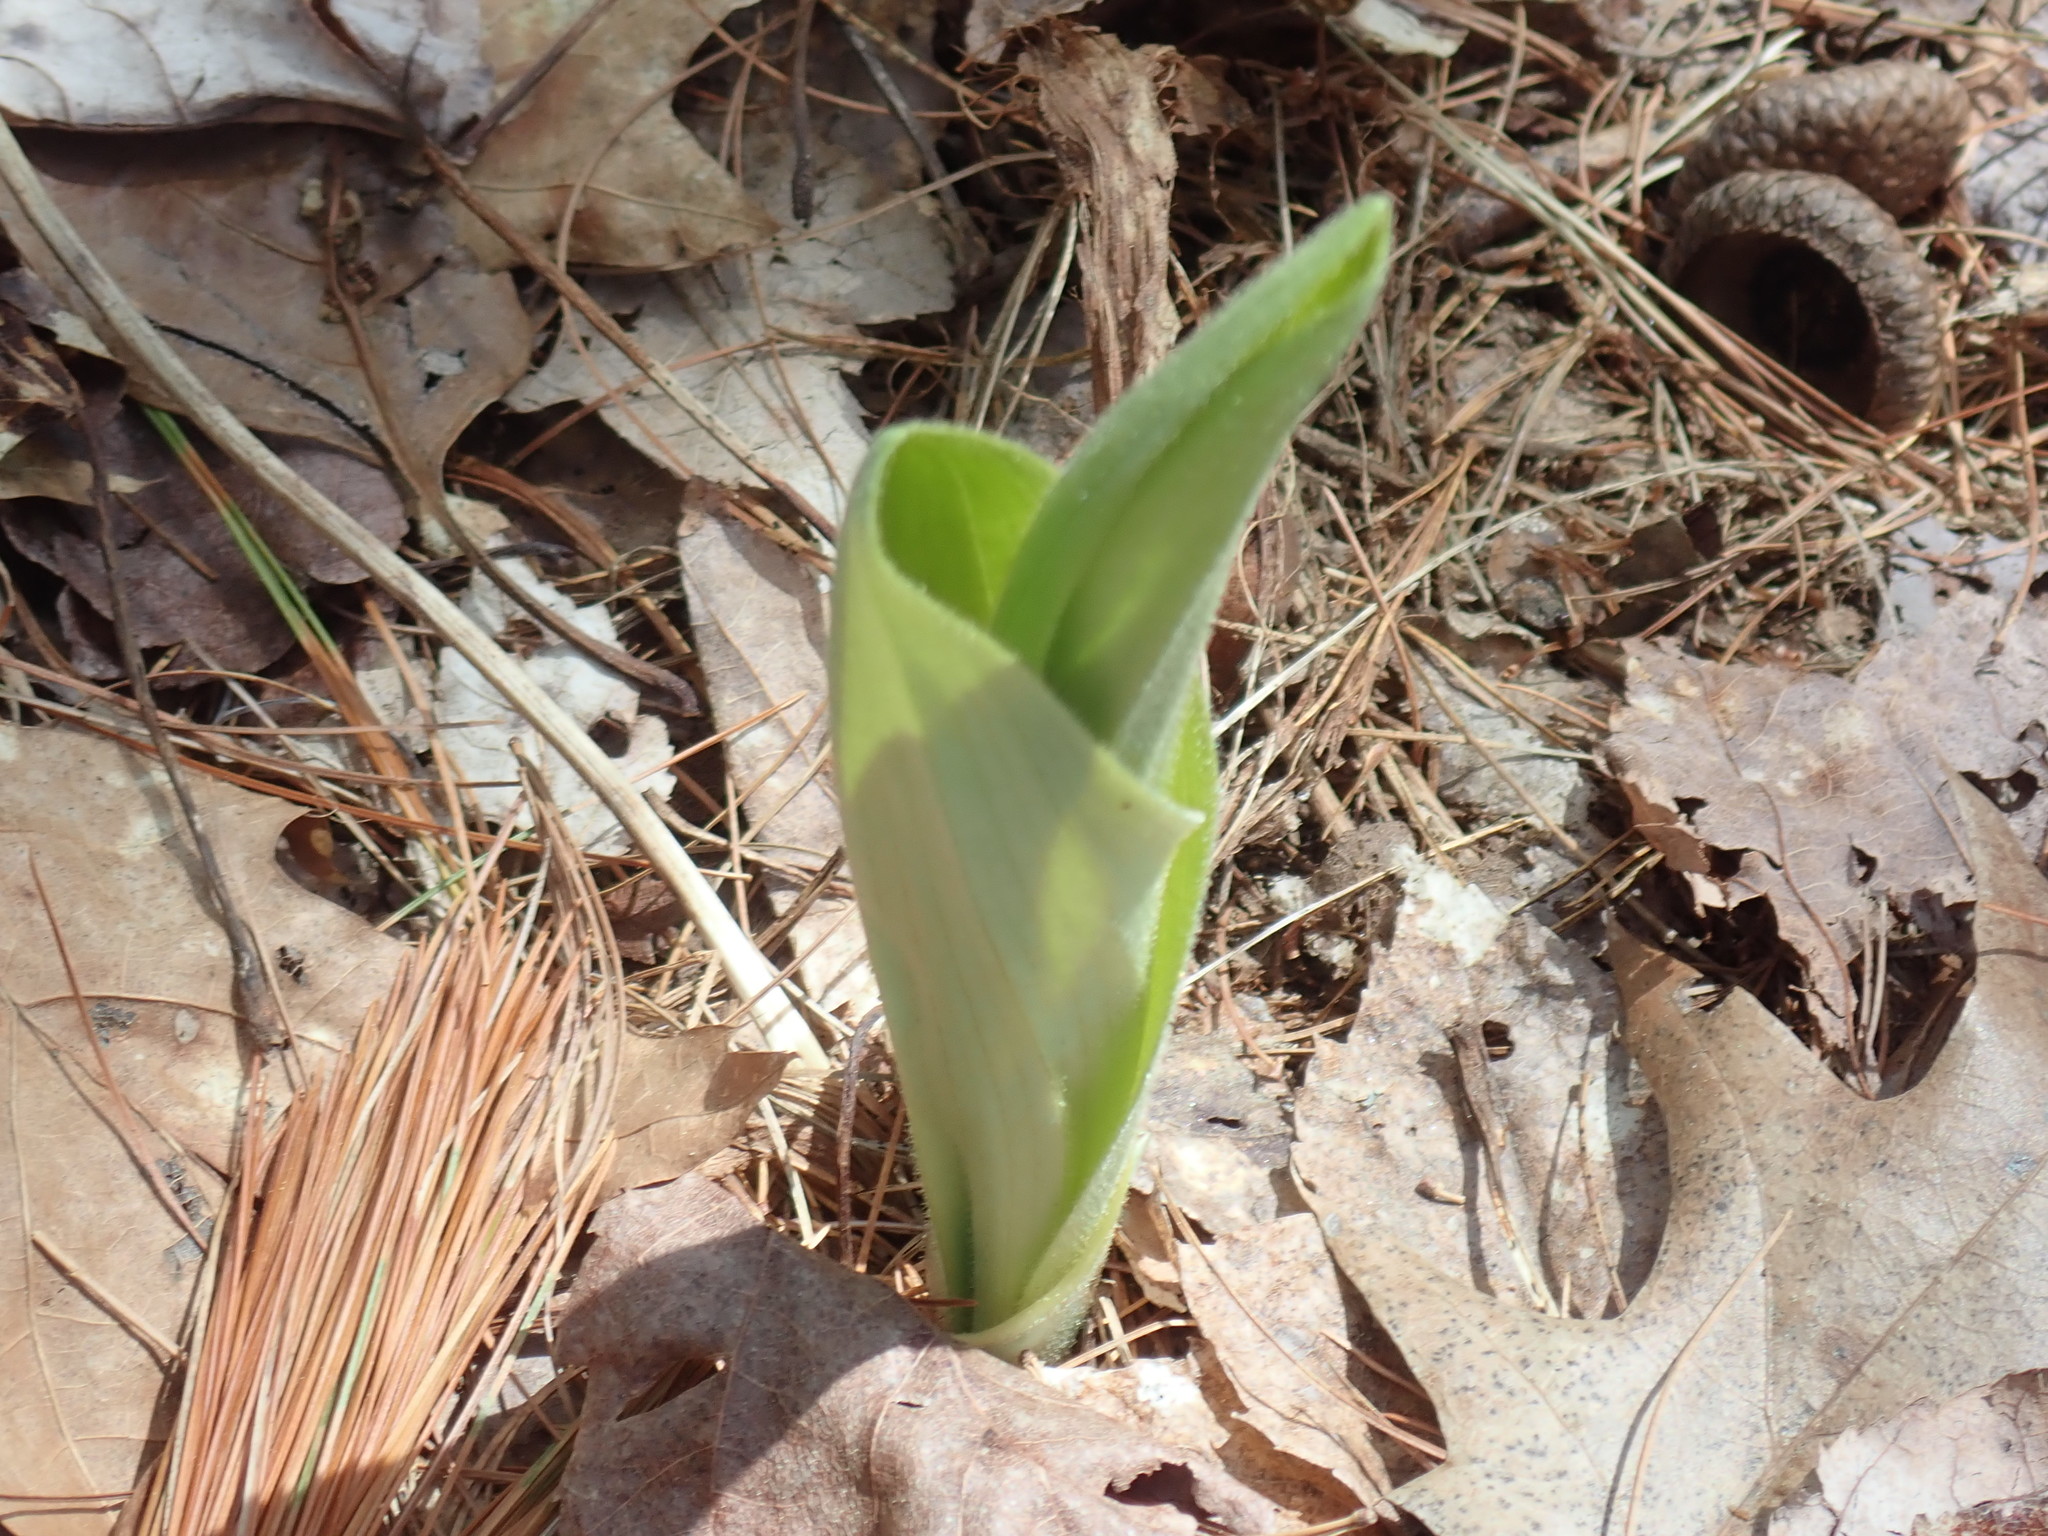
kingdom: Plantae
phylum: Tracheophyta
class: Liliopsida
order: Asparagales
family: Orchidaceae
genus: Cypripedium
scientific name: Cypripedium acaule
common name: Pink lady's-slipper
